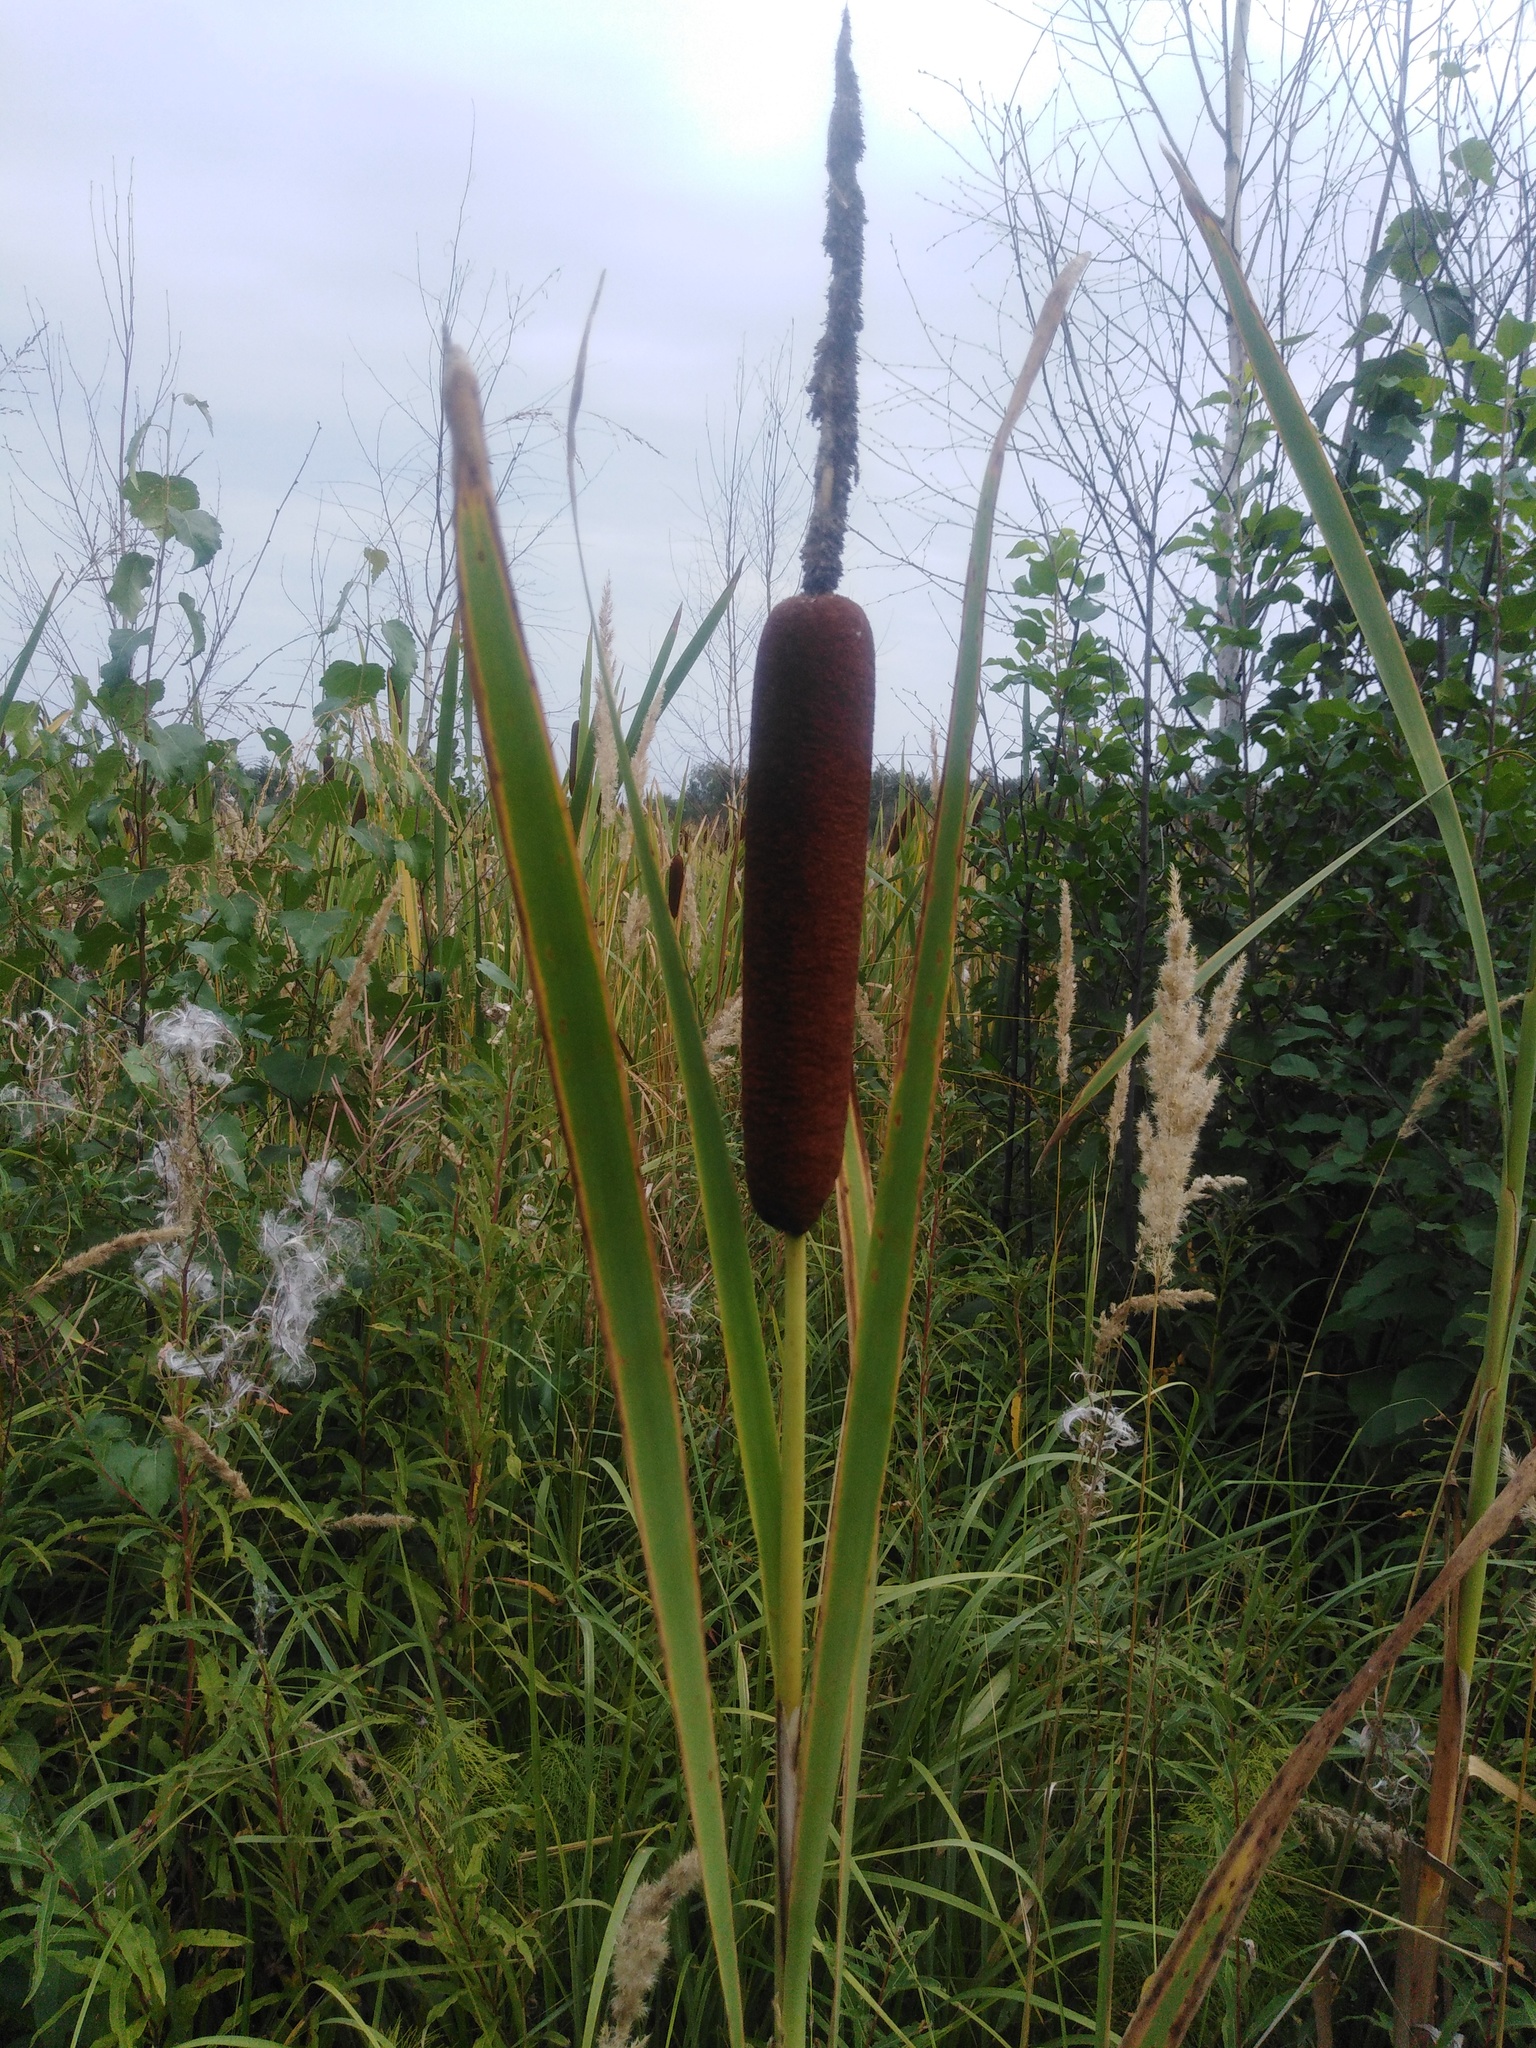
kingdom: Plantae
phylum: Tracheophyta
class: Liliopsida
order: Poales
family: Typhaceae
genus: Typha
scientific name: Typha latifolia
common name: Broadleaf cattail
